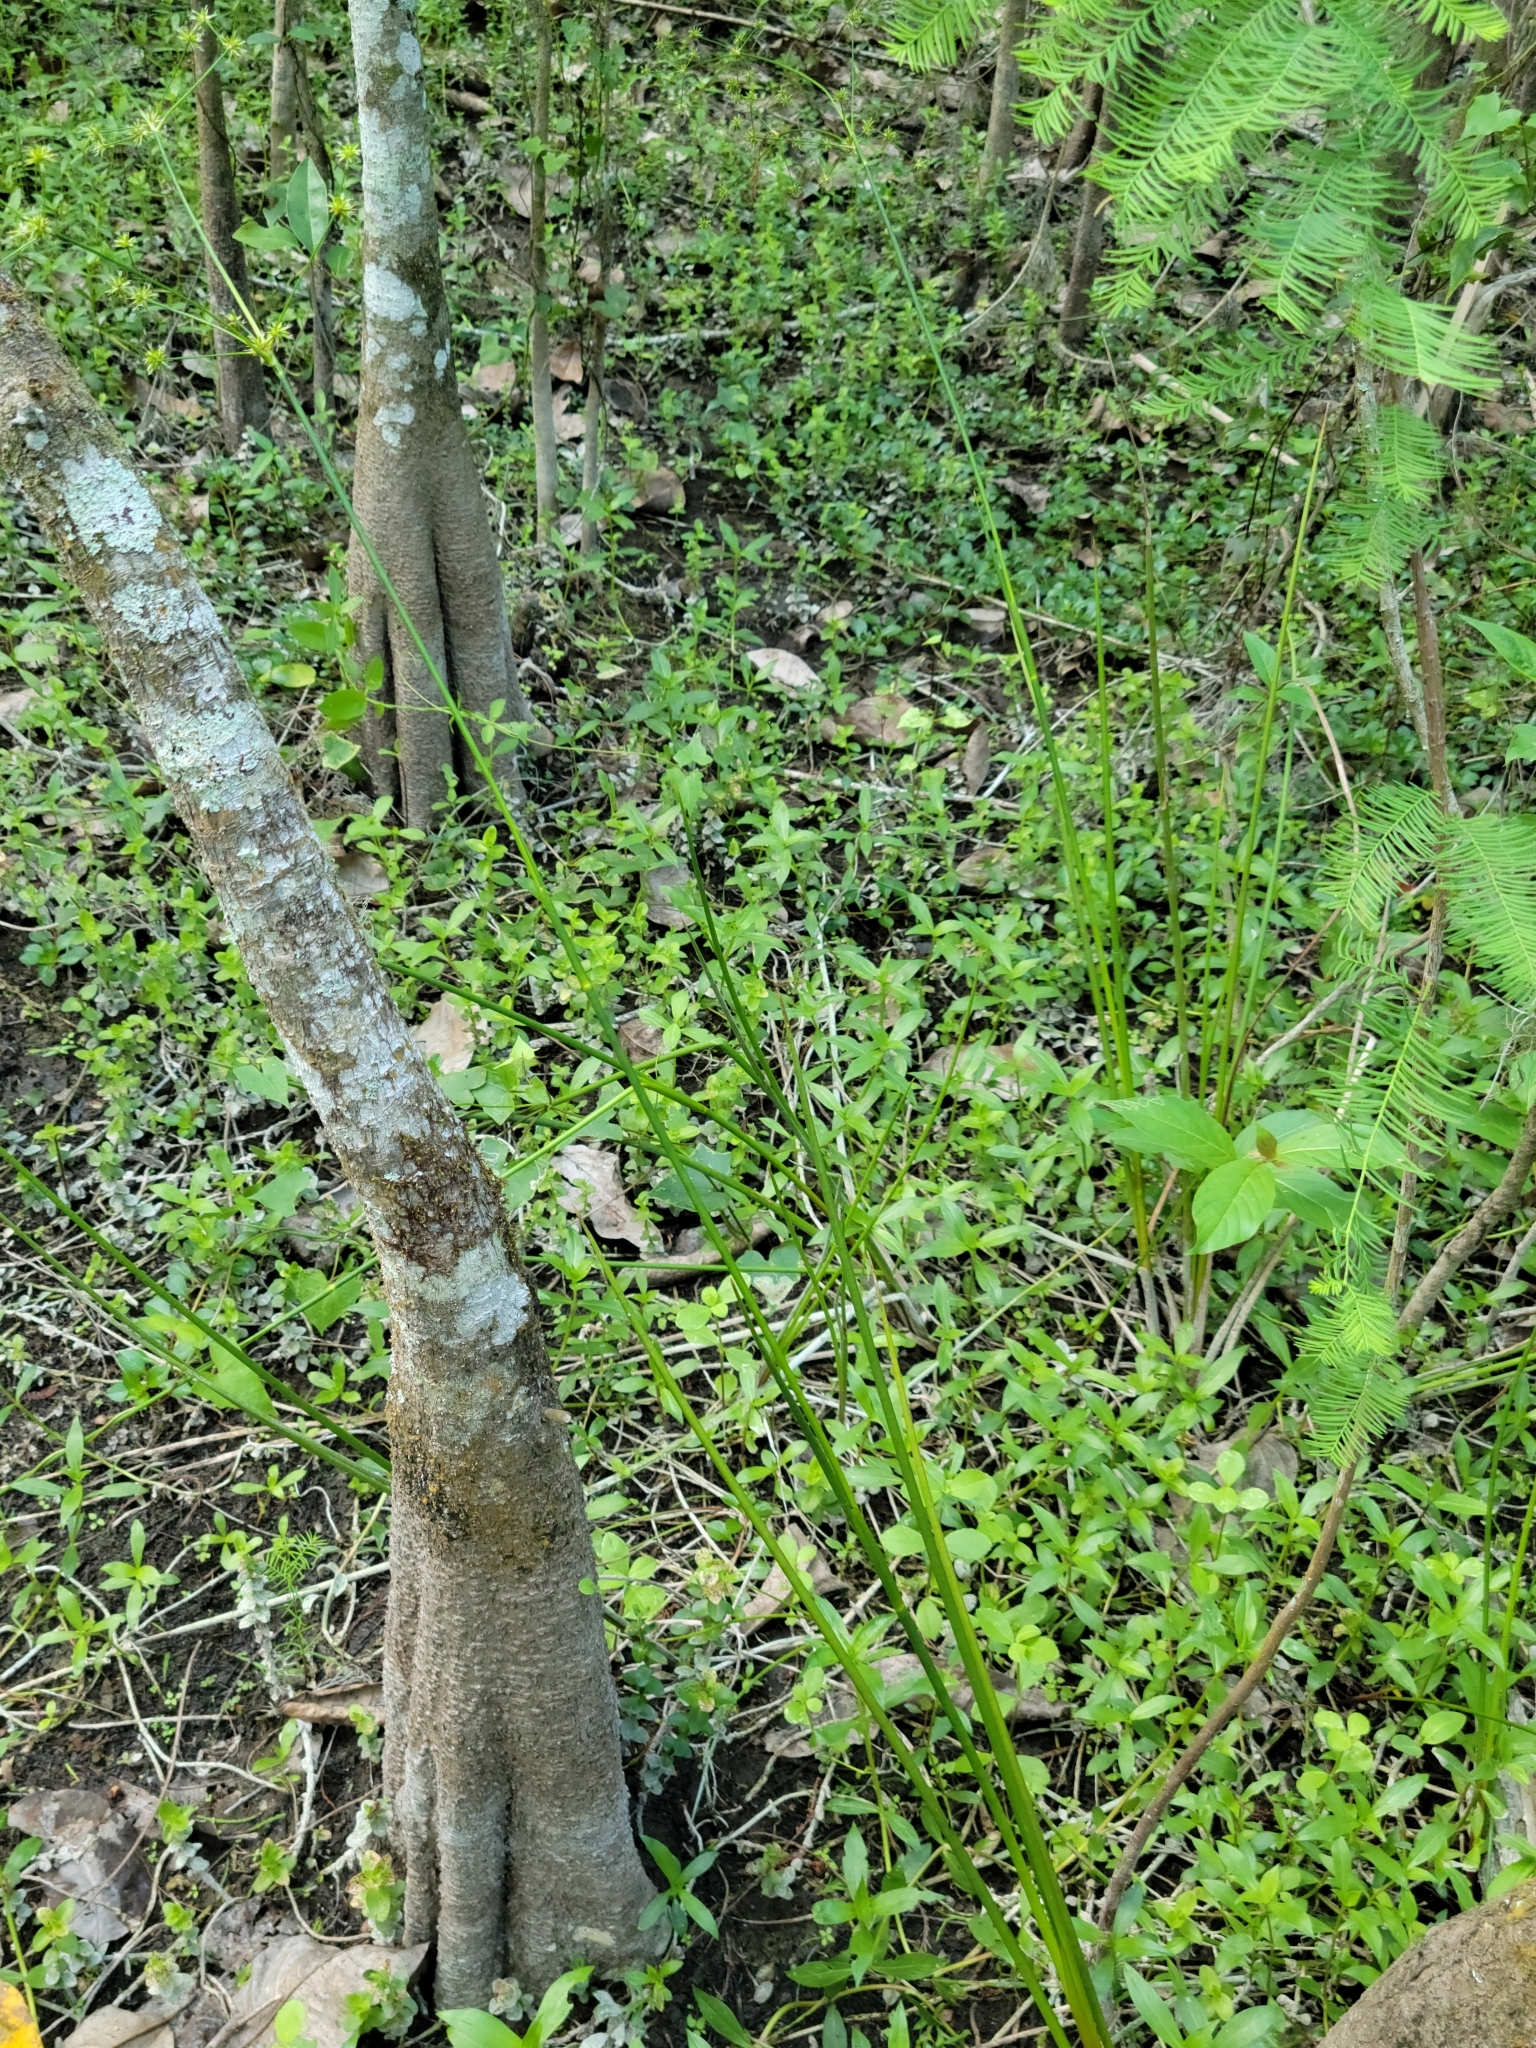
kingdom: Plantae
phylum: Tracheophyta
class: Liliopsida
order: Poales
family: Juncaceae
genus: Juncus
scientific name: Juncus paludosus
